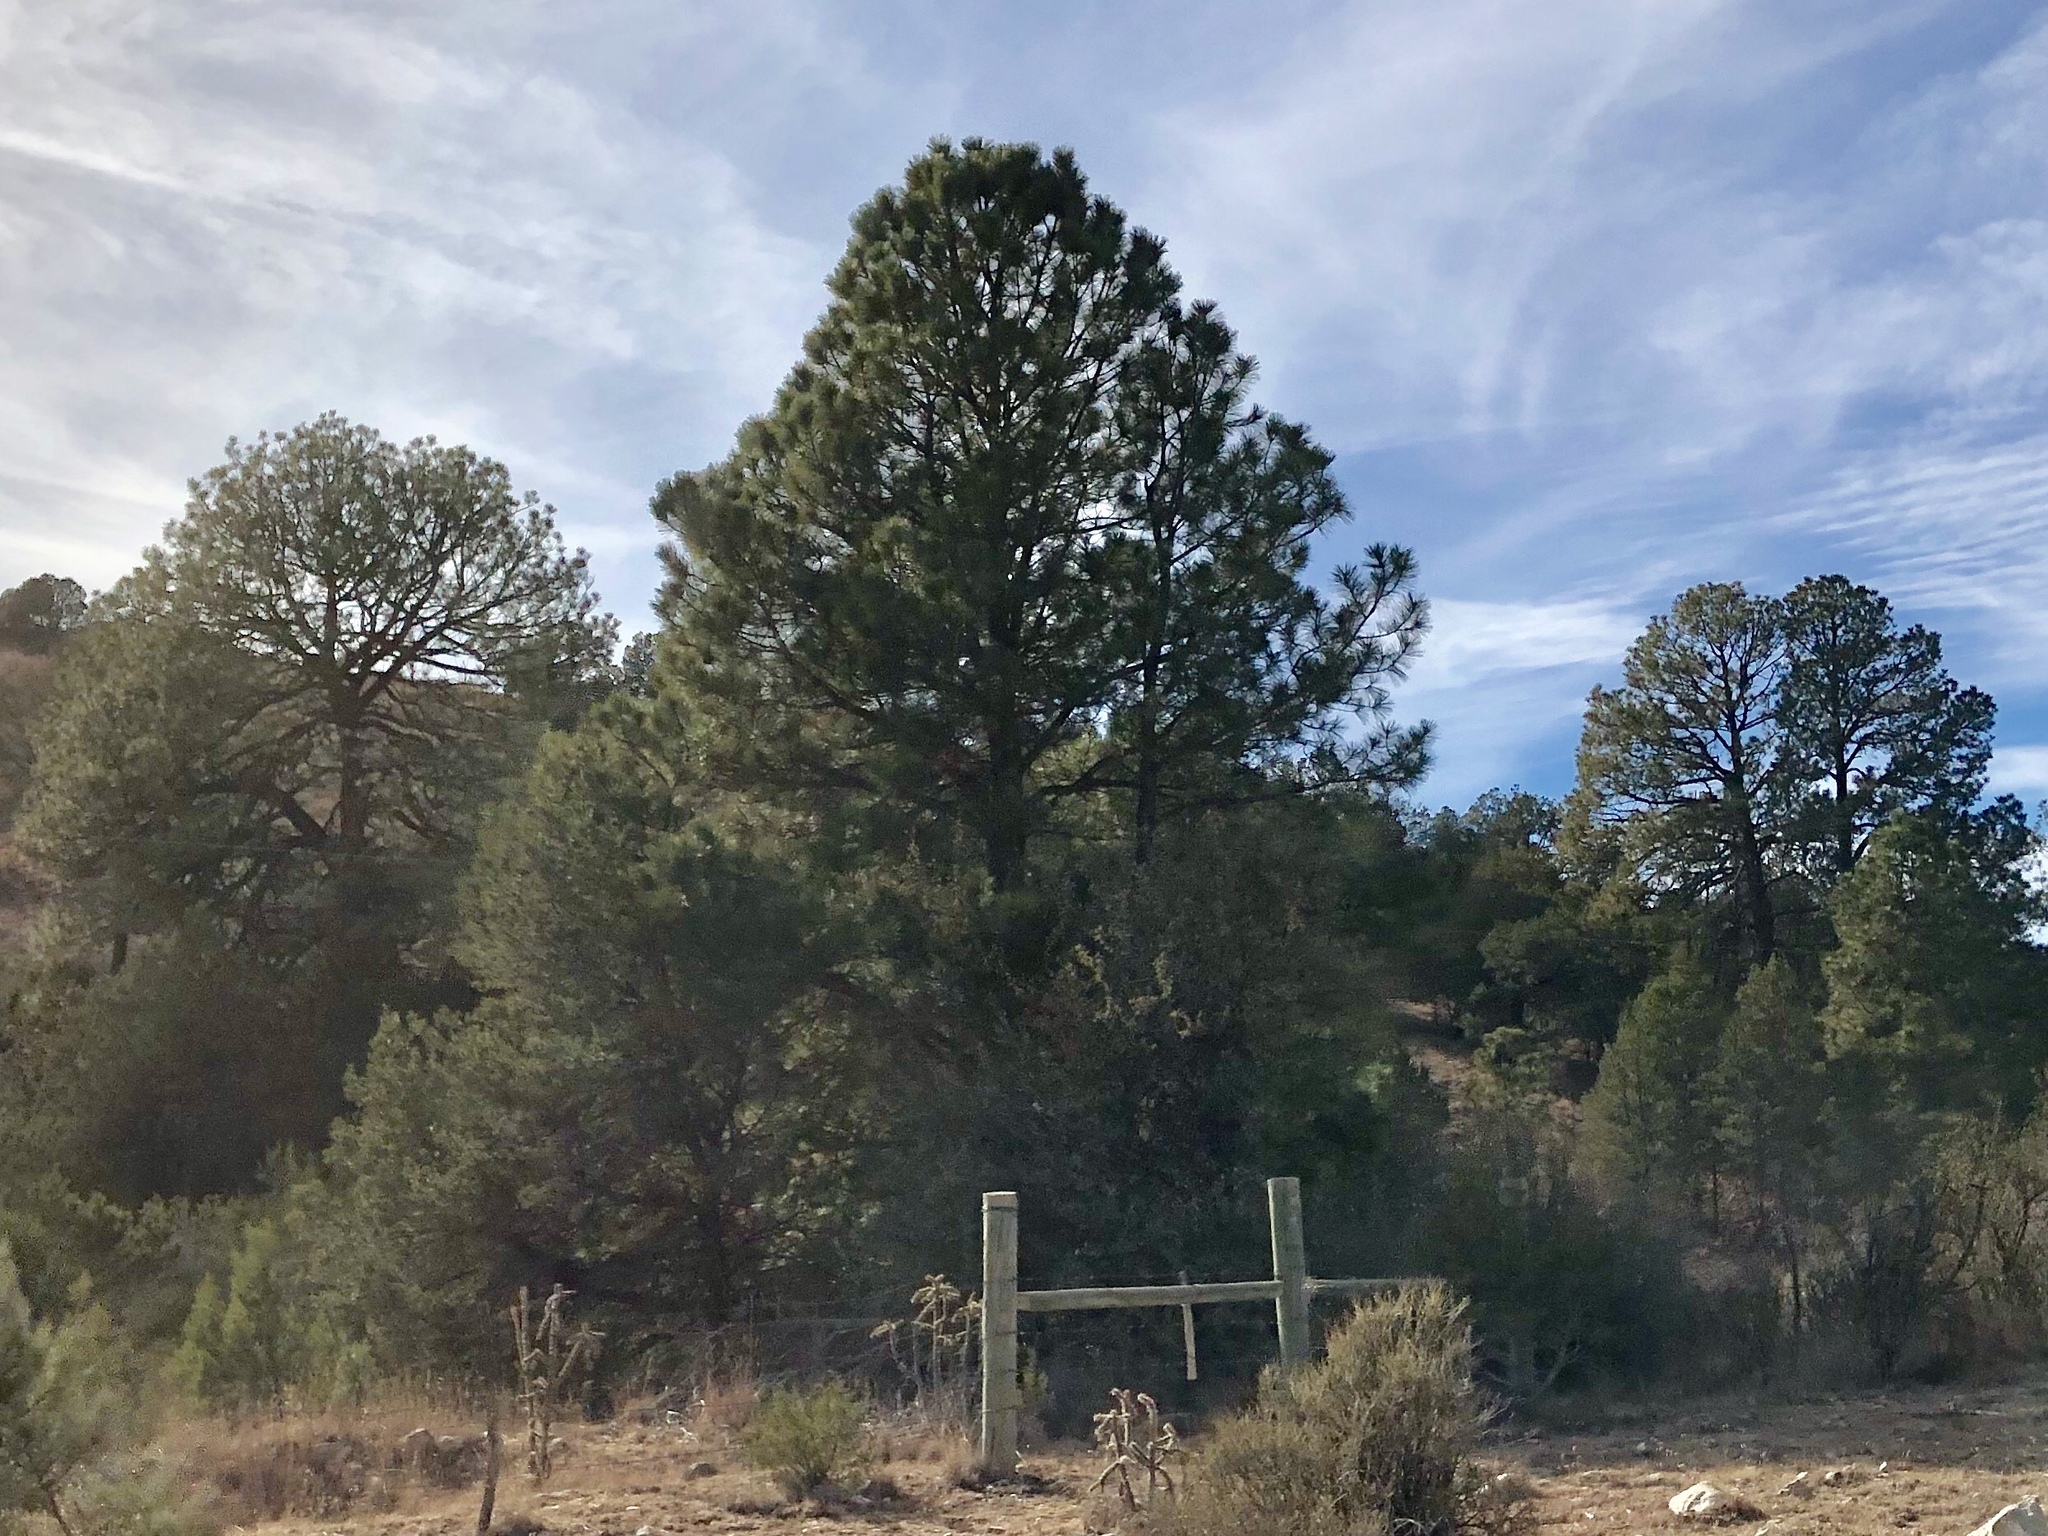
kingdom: Plantae
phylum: Tracheophyta
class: Pinopsida
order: Pinales
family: Pinaceae
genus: Pinus
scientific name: Pinus ponderosa
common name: Western yellow-pine
